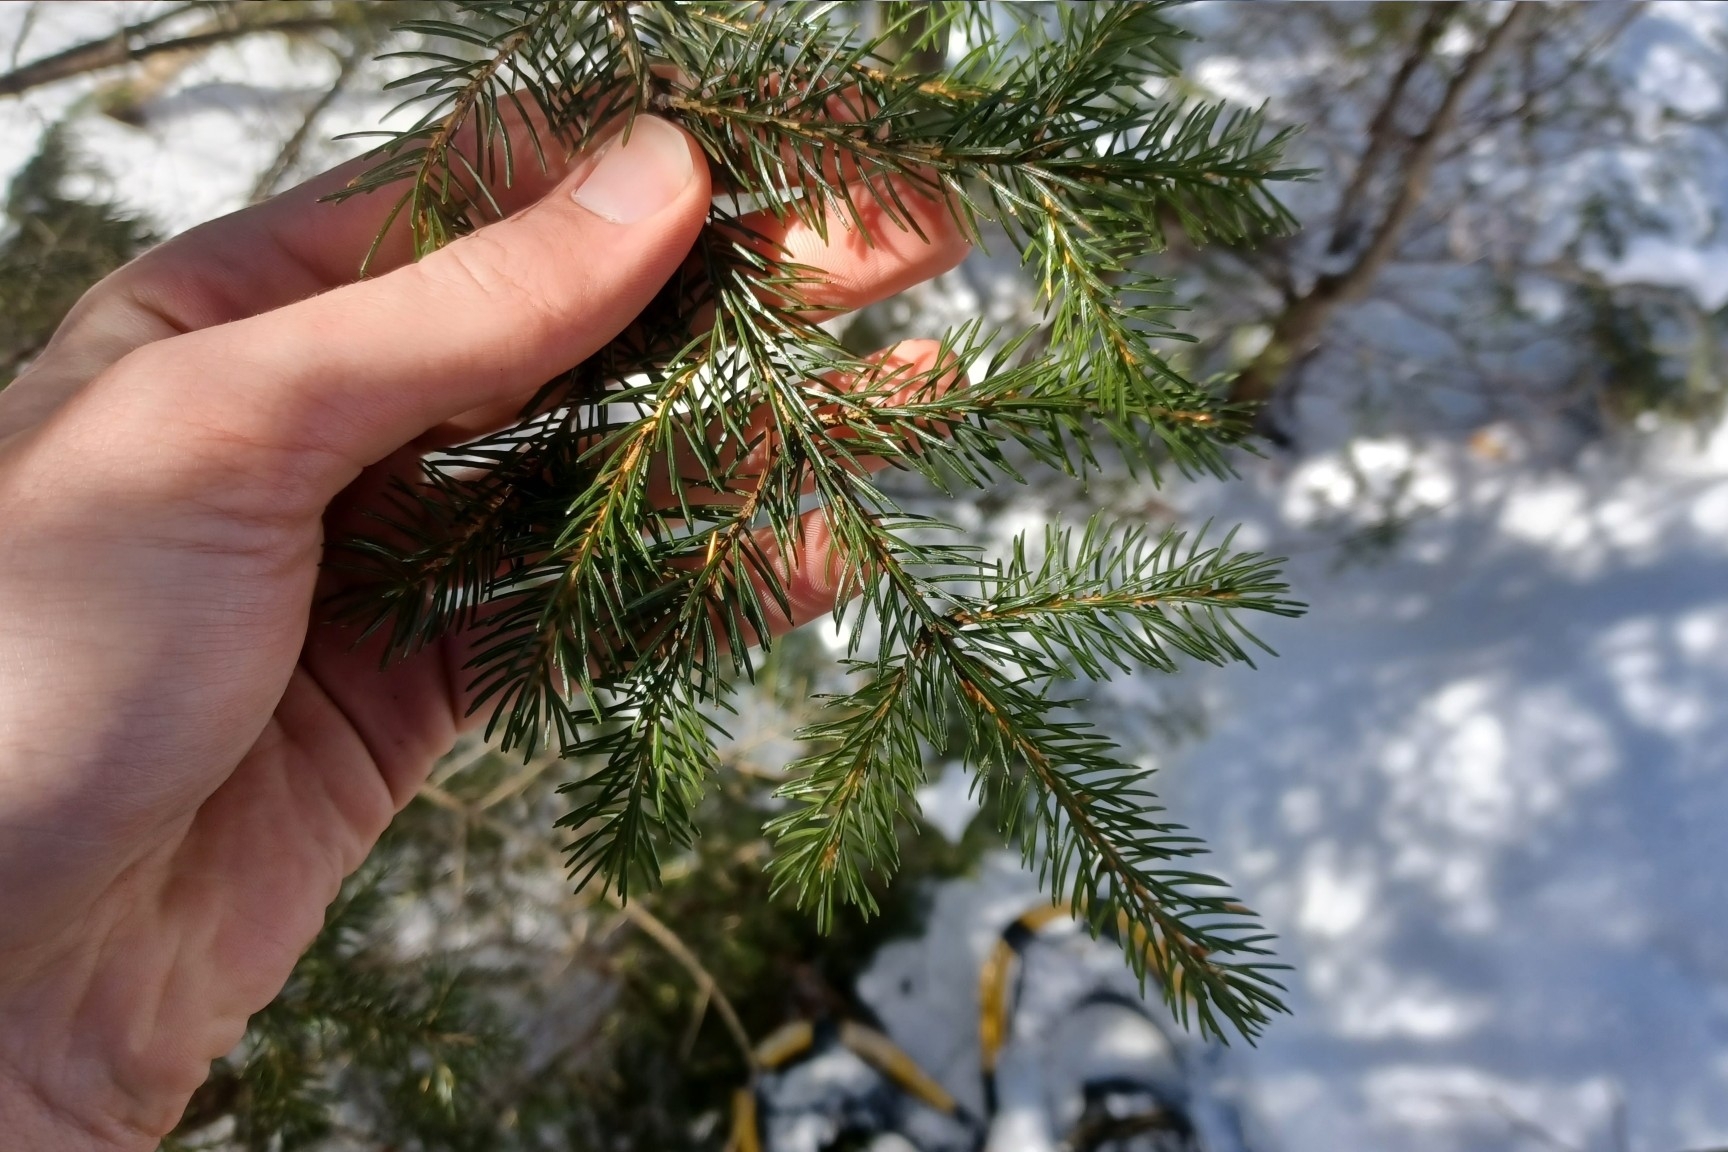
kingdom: Plantae
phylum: Tracheophyta
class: Pinopsida
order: Pinales
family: Pinaceae
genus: Picea
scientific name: Picea rubens
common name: Red spruce
